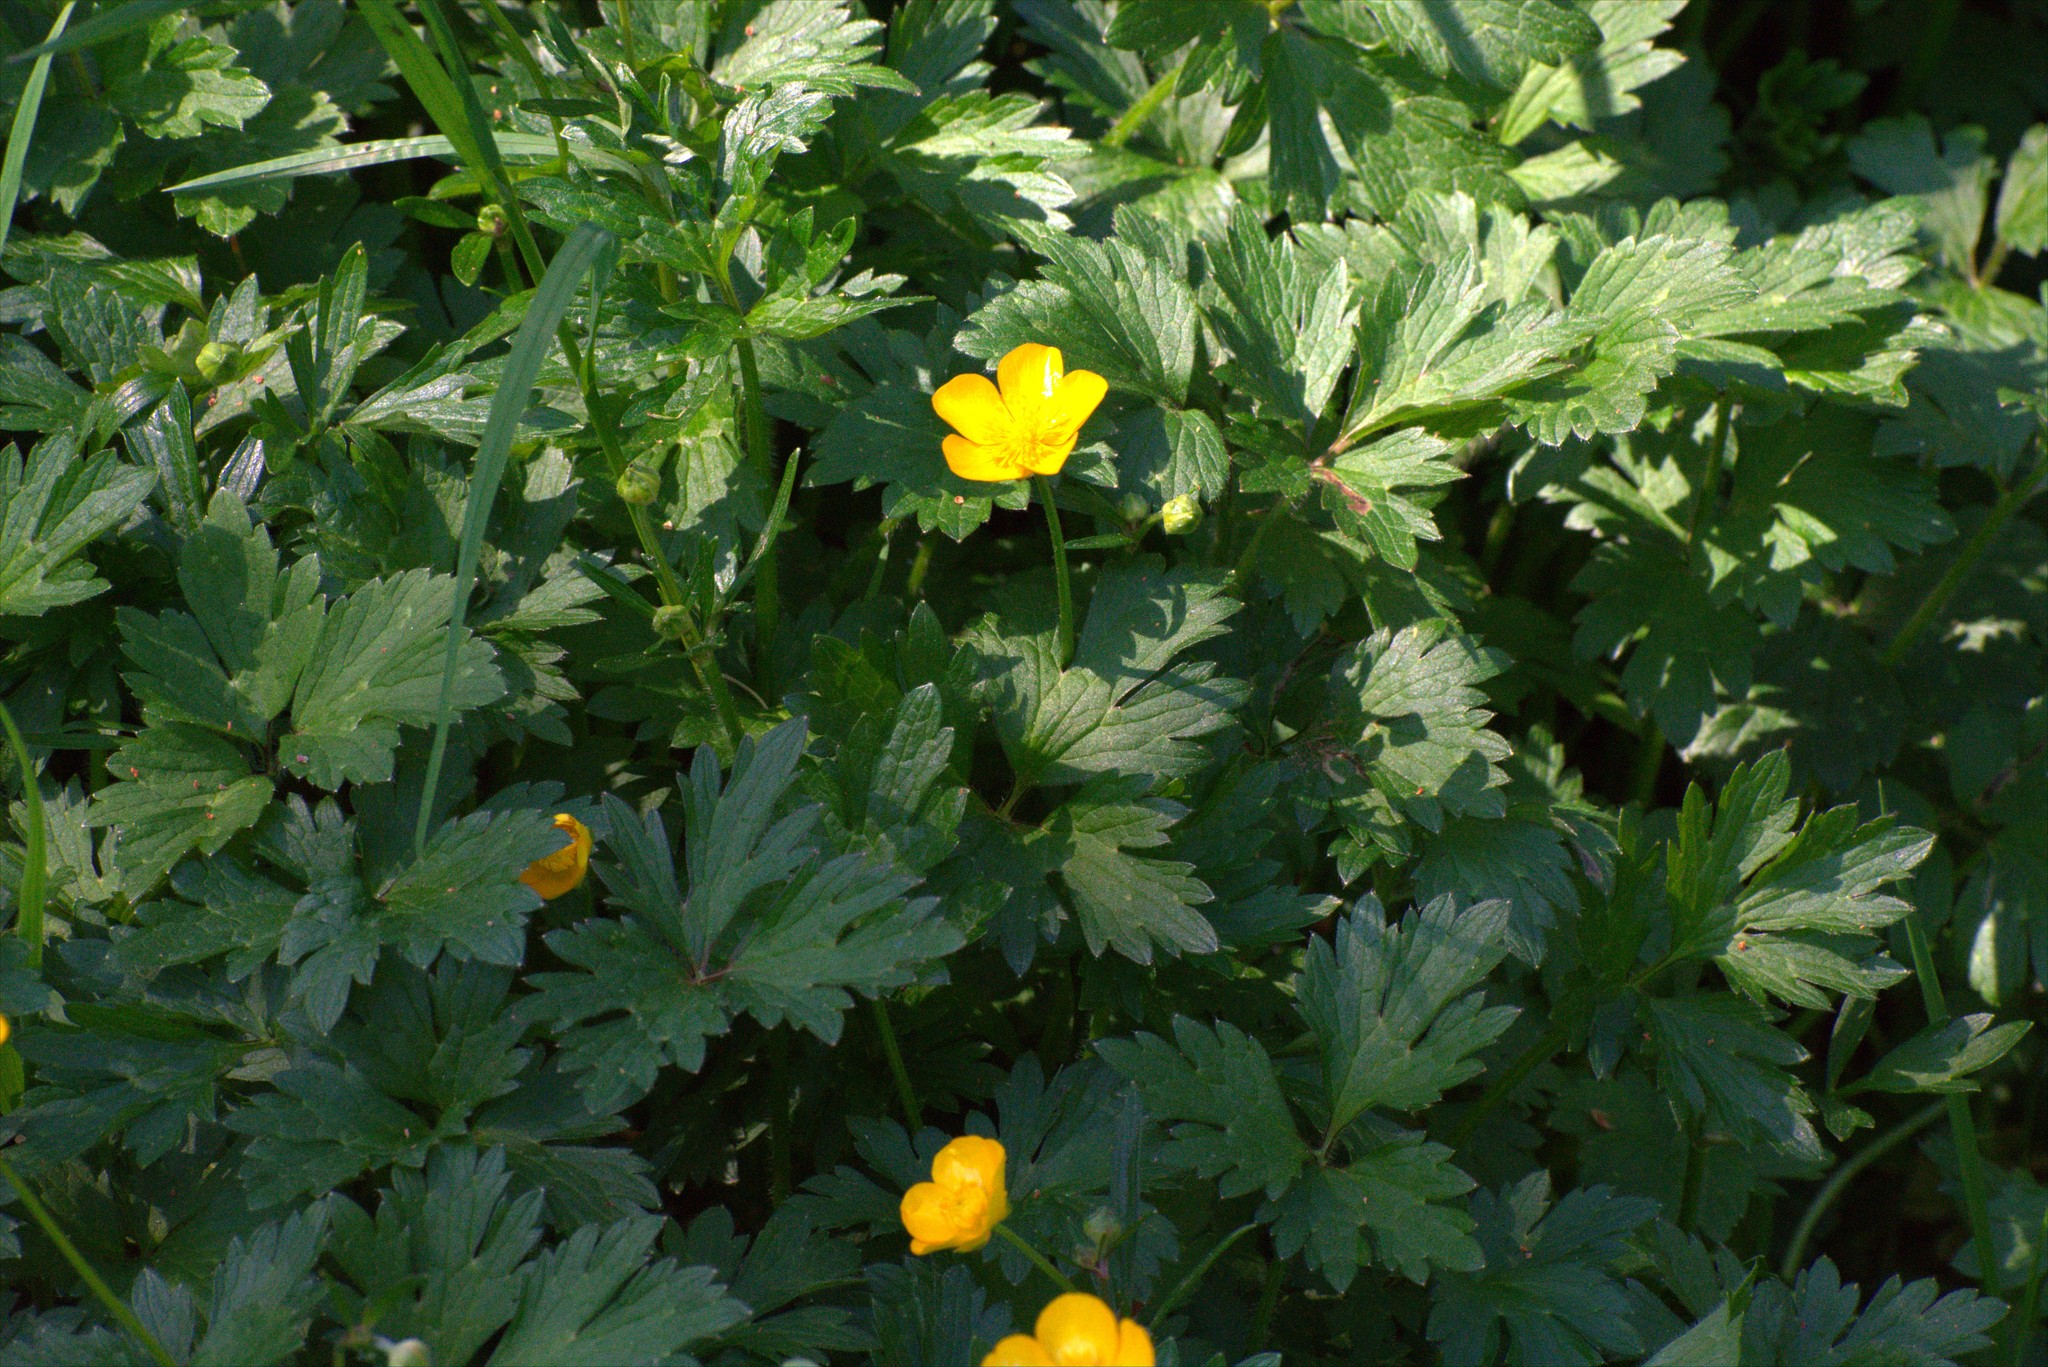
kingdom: Plantae
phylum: Tracheophyta
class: Magnoliopsida
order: Ranunculales
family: Ranunculaceae
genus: Ranunculus
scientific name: Ranunculus repens
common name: Creeping buttercup
